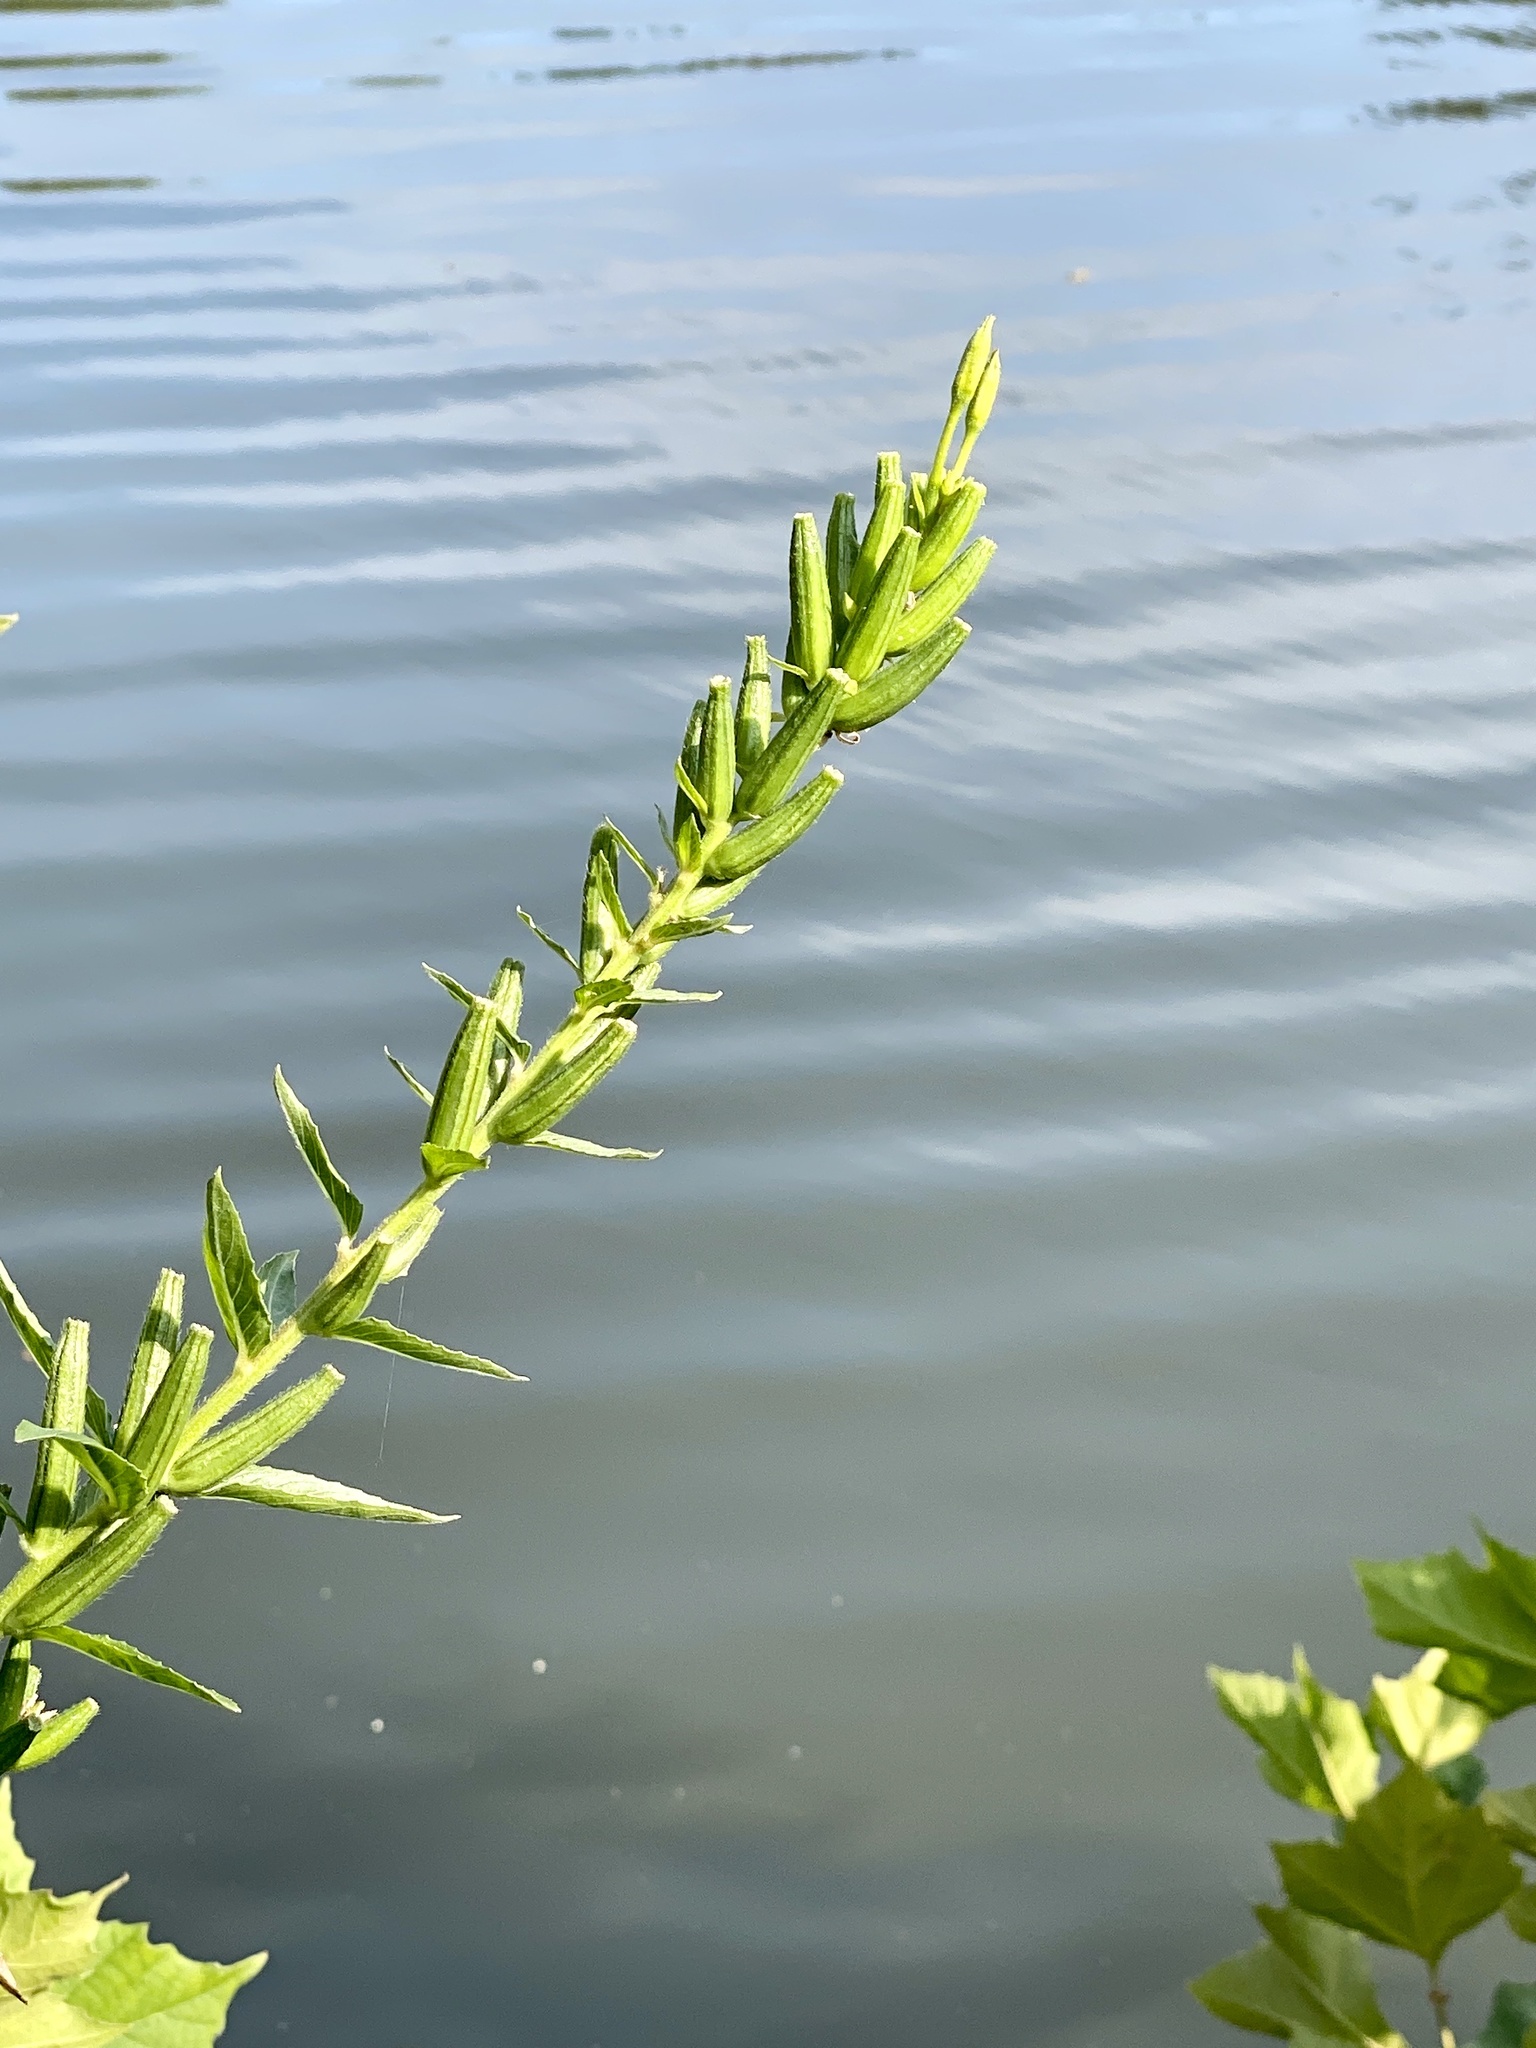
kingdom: Plantae
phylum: Tracheophyta
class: Magnoliopsida
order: Myrtales
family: Onagraceae
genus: Oenothera
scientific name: Oenothera biennis
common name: Common evening-primrose
